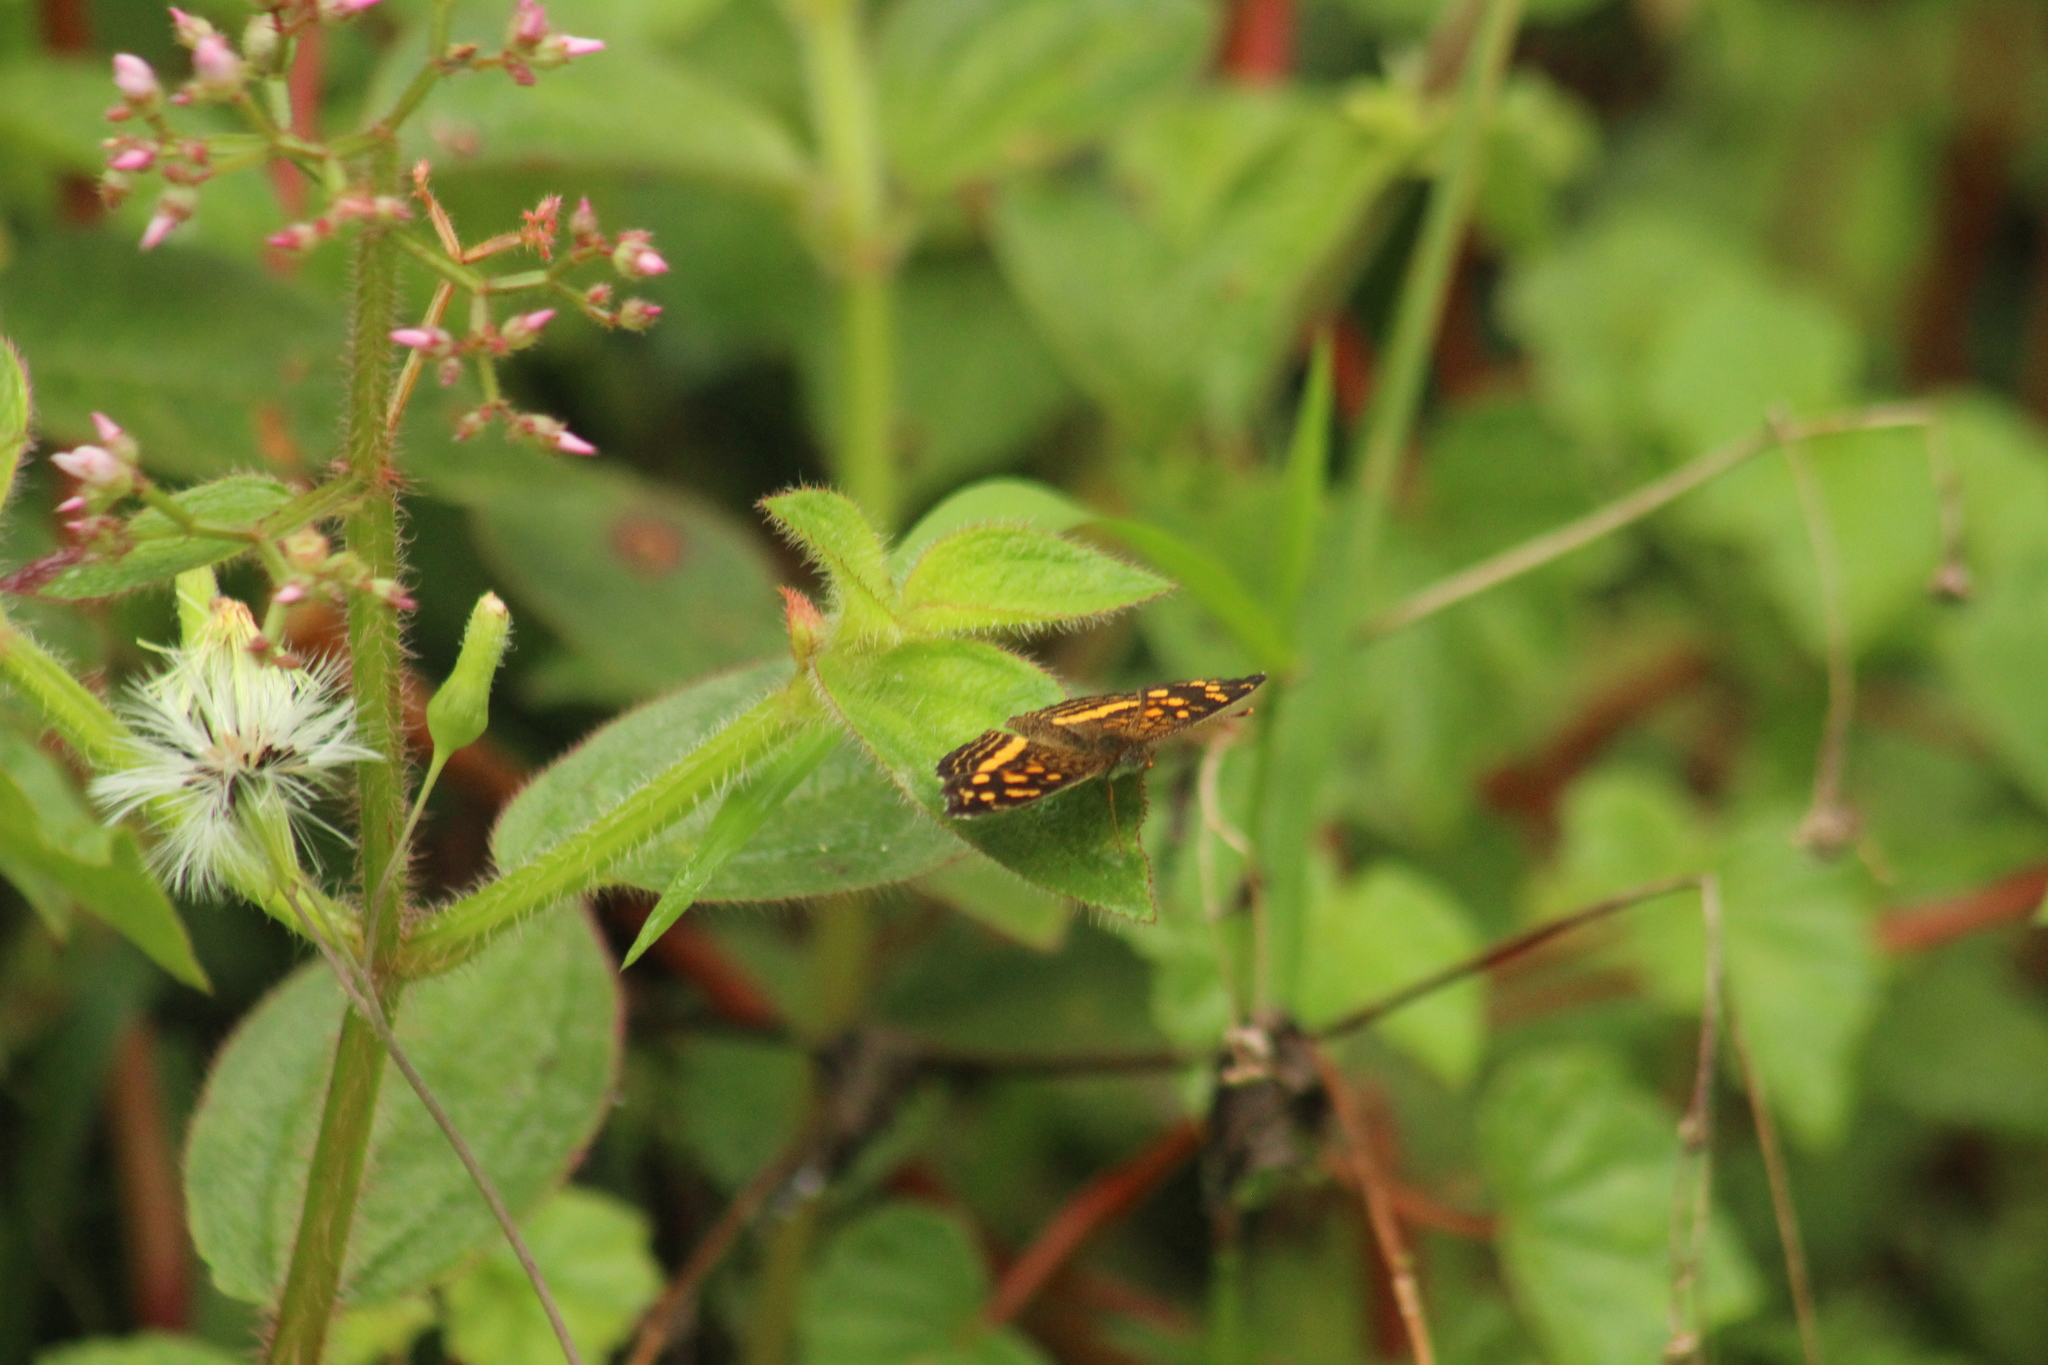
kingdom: Animalia
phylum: Arthropoda
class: Insecta
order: Lepidoptera
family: Nymphalidae
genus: Anthanassa
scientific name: Anthanassa drusilla
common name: Orange-patched crescent
